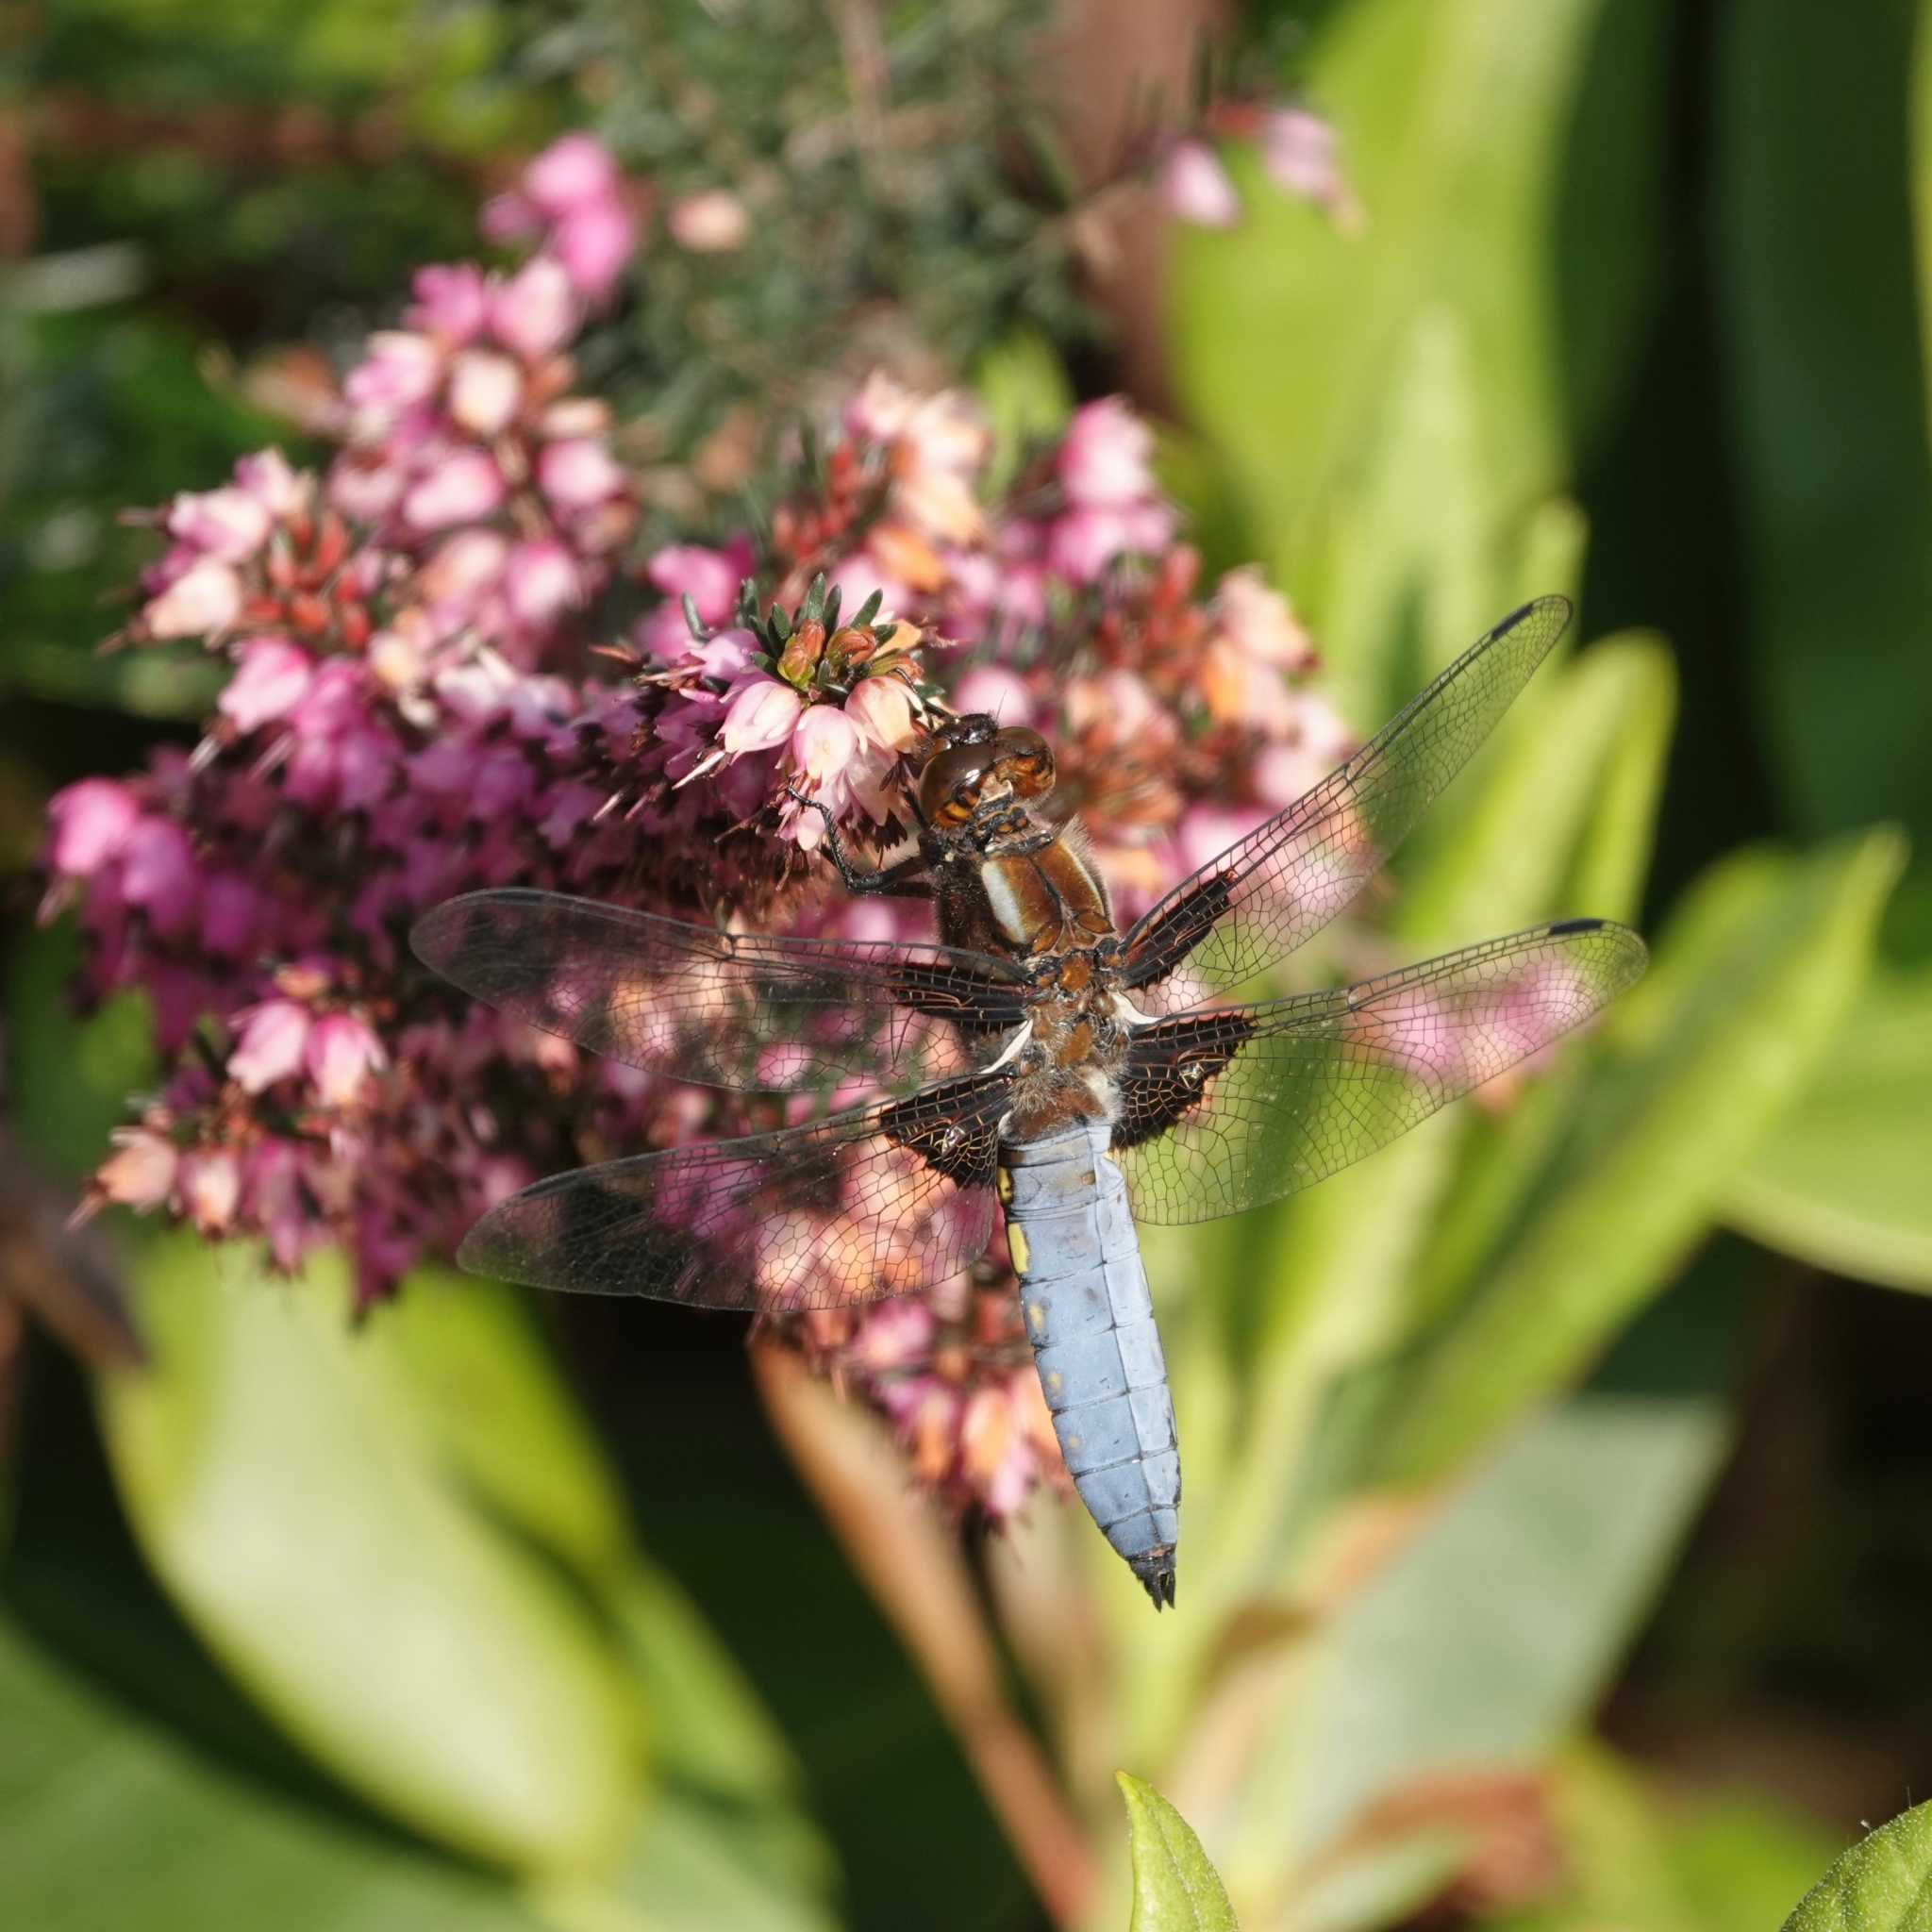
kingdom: Animalia
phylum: Arthropoda
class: Insecta
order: Odonata
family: Libellulidae
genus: Libellula
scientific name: Libellula depressa
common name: Broad-bodied chaser
